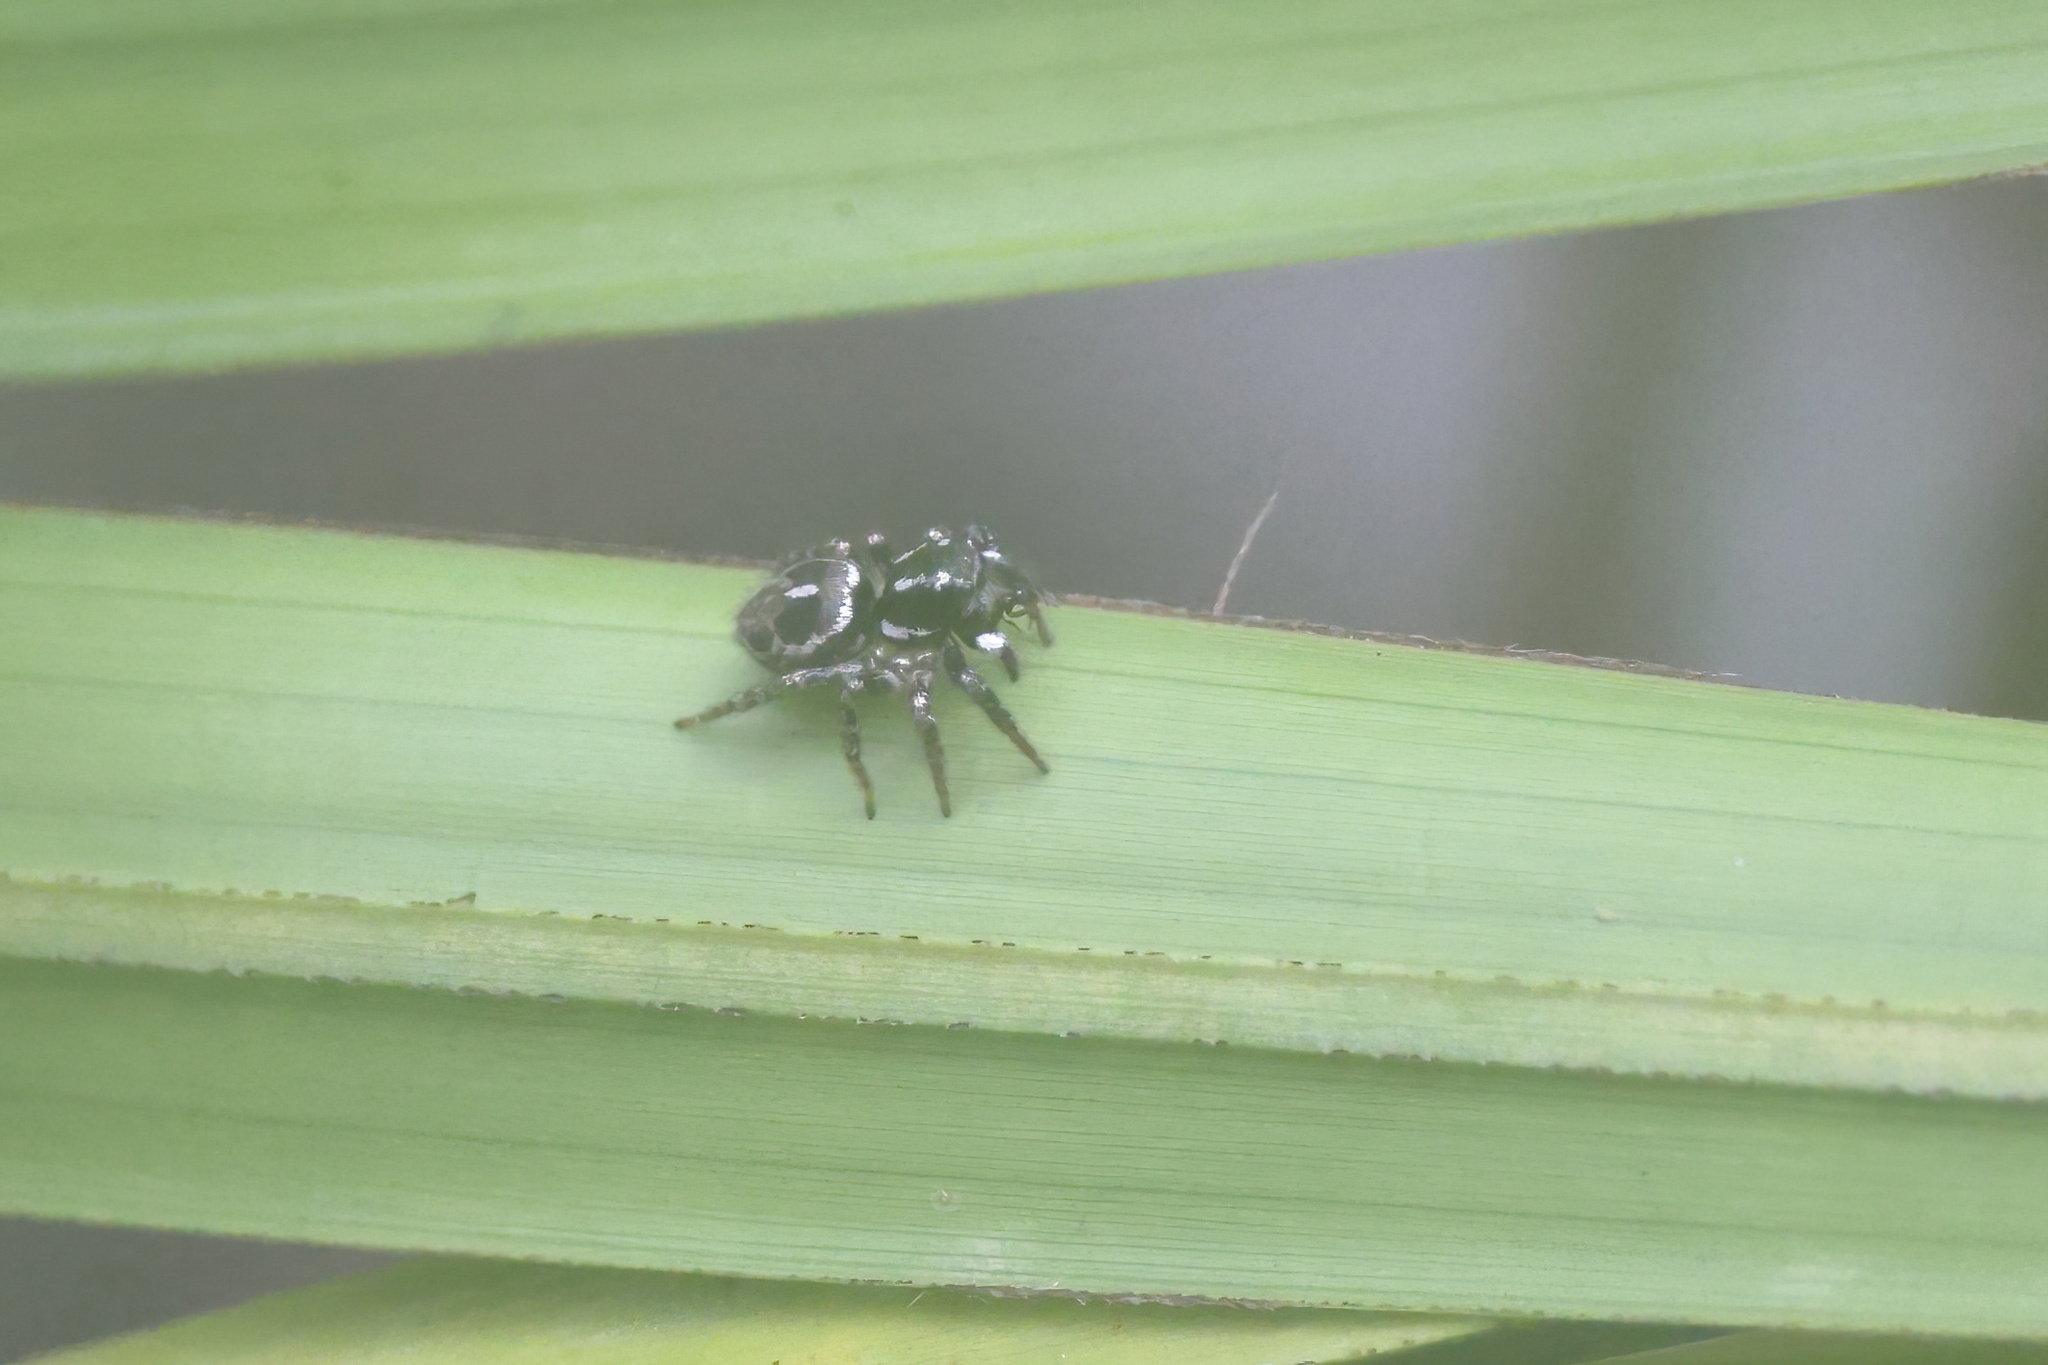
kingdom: Animalia
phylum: Arthropoda
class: Arachnida
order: Araneae
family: Salticidae
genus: Anasaitis
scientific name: Anasaitis canosa
